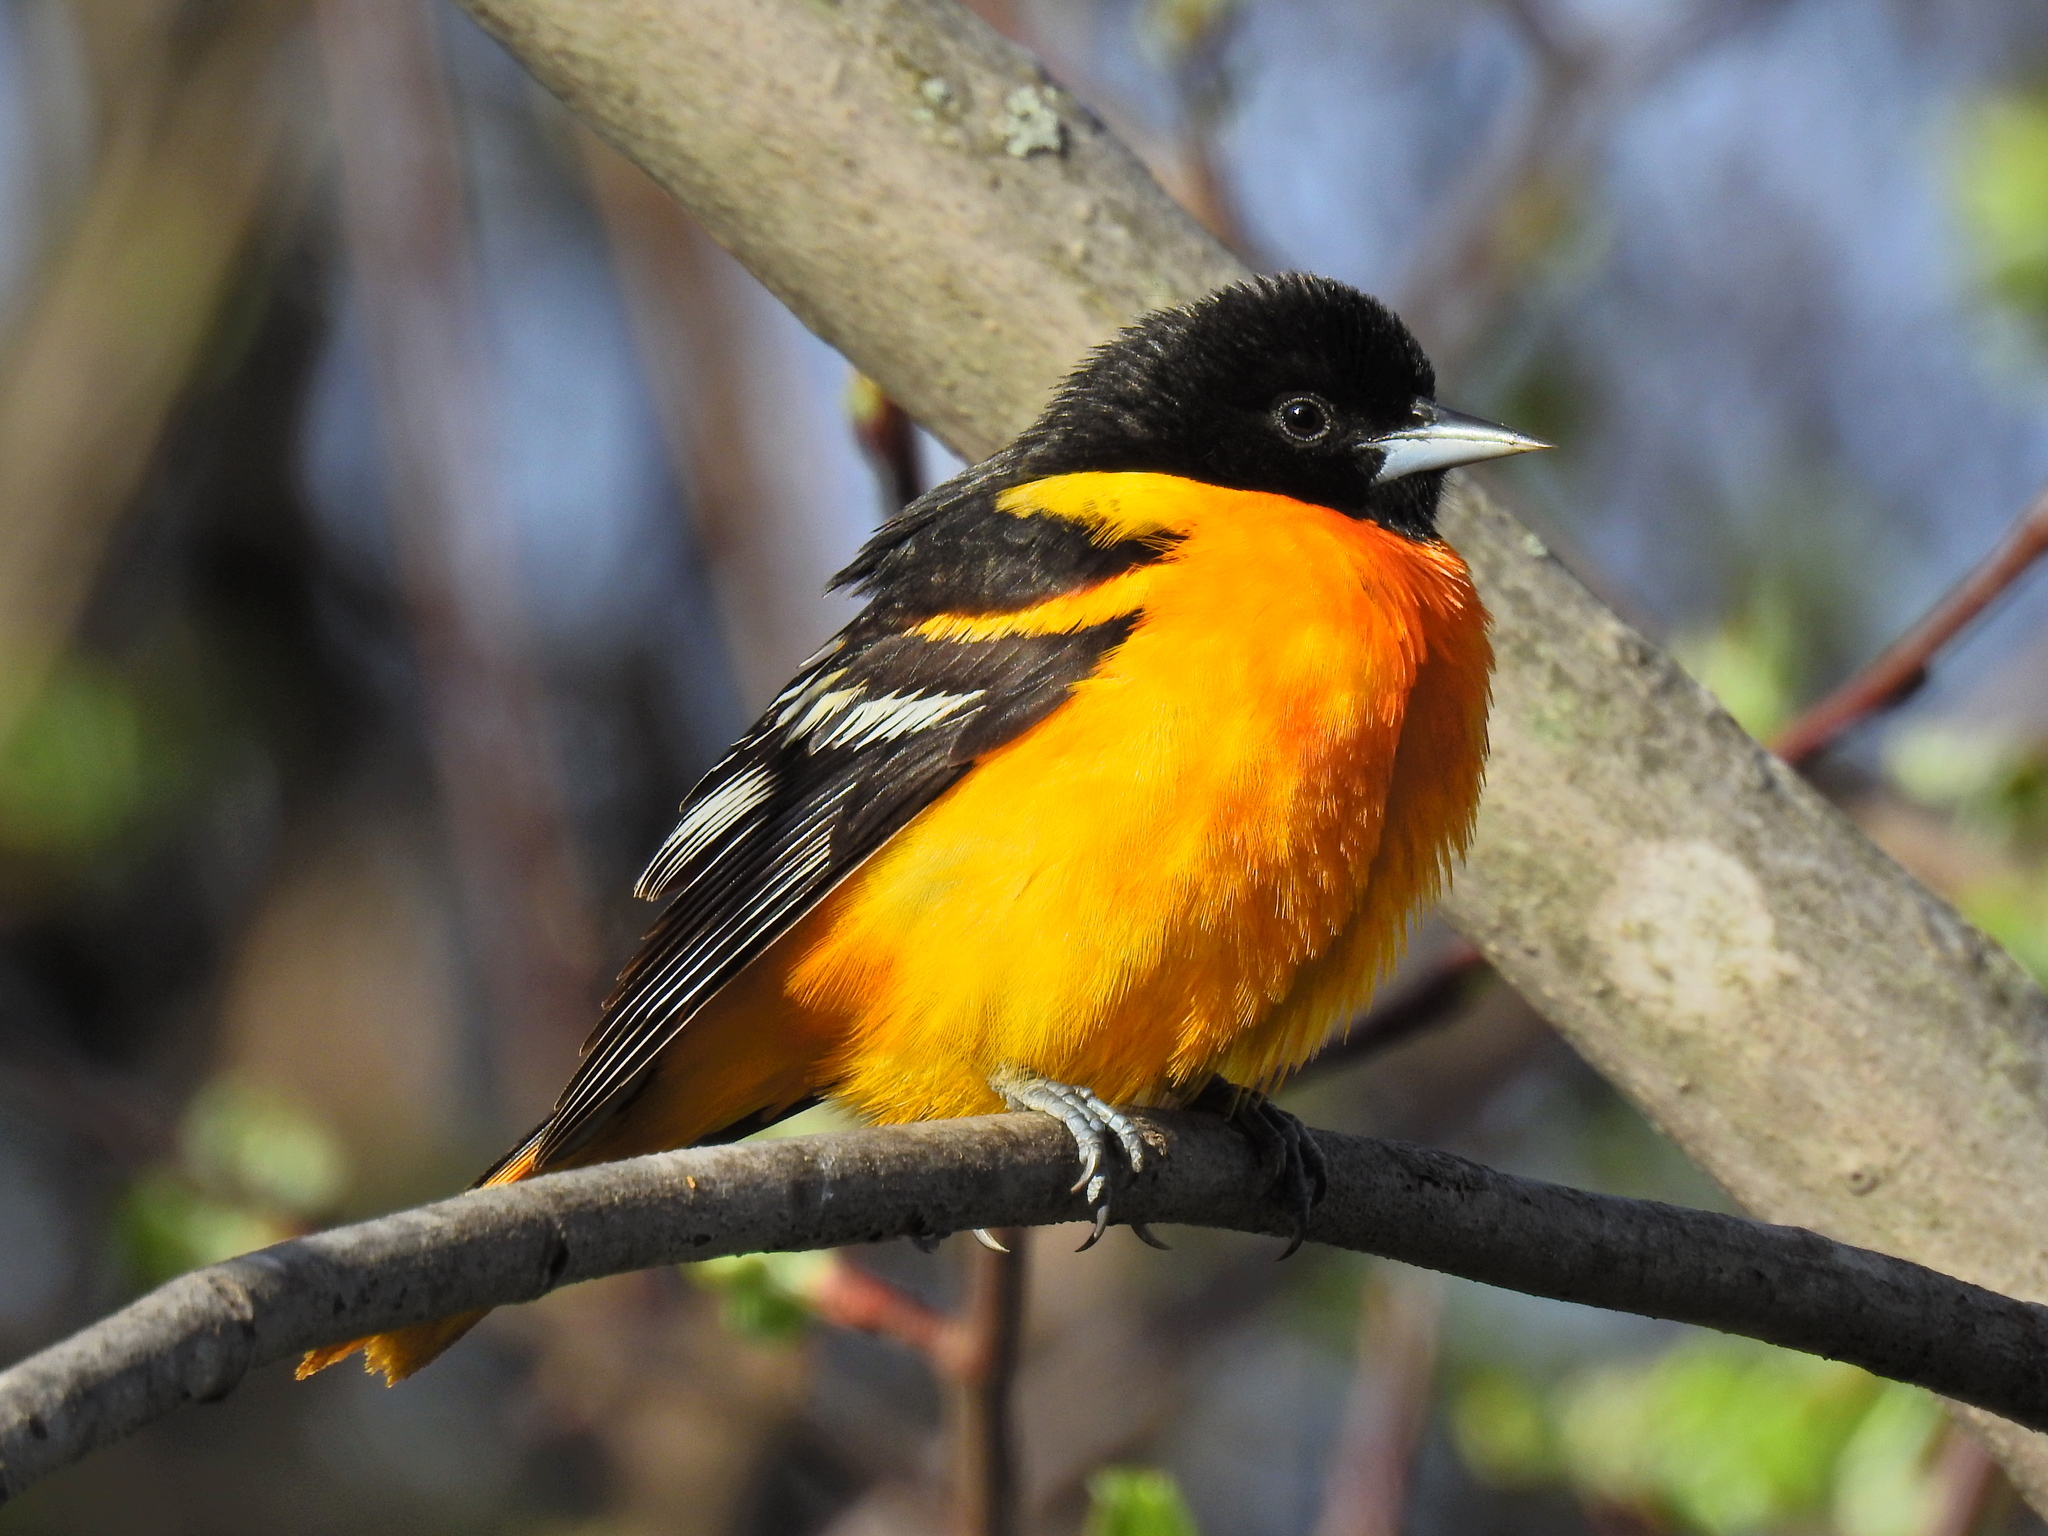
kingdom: Animalia
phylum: Chordata
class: Aves
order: Passeriformes
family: Icteridae
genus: Icterus
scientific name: Icterus galbula
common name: Baltimore oriole
